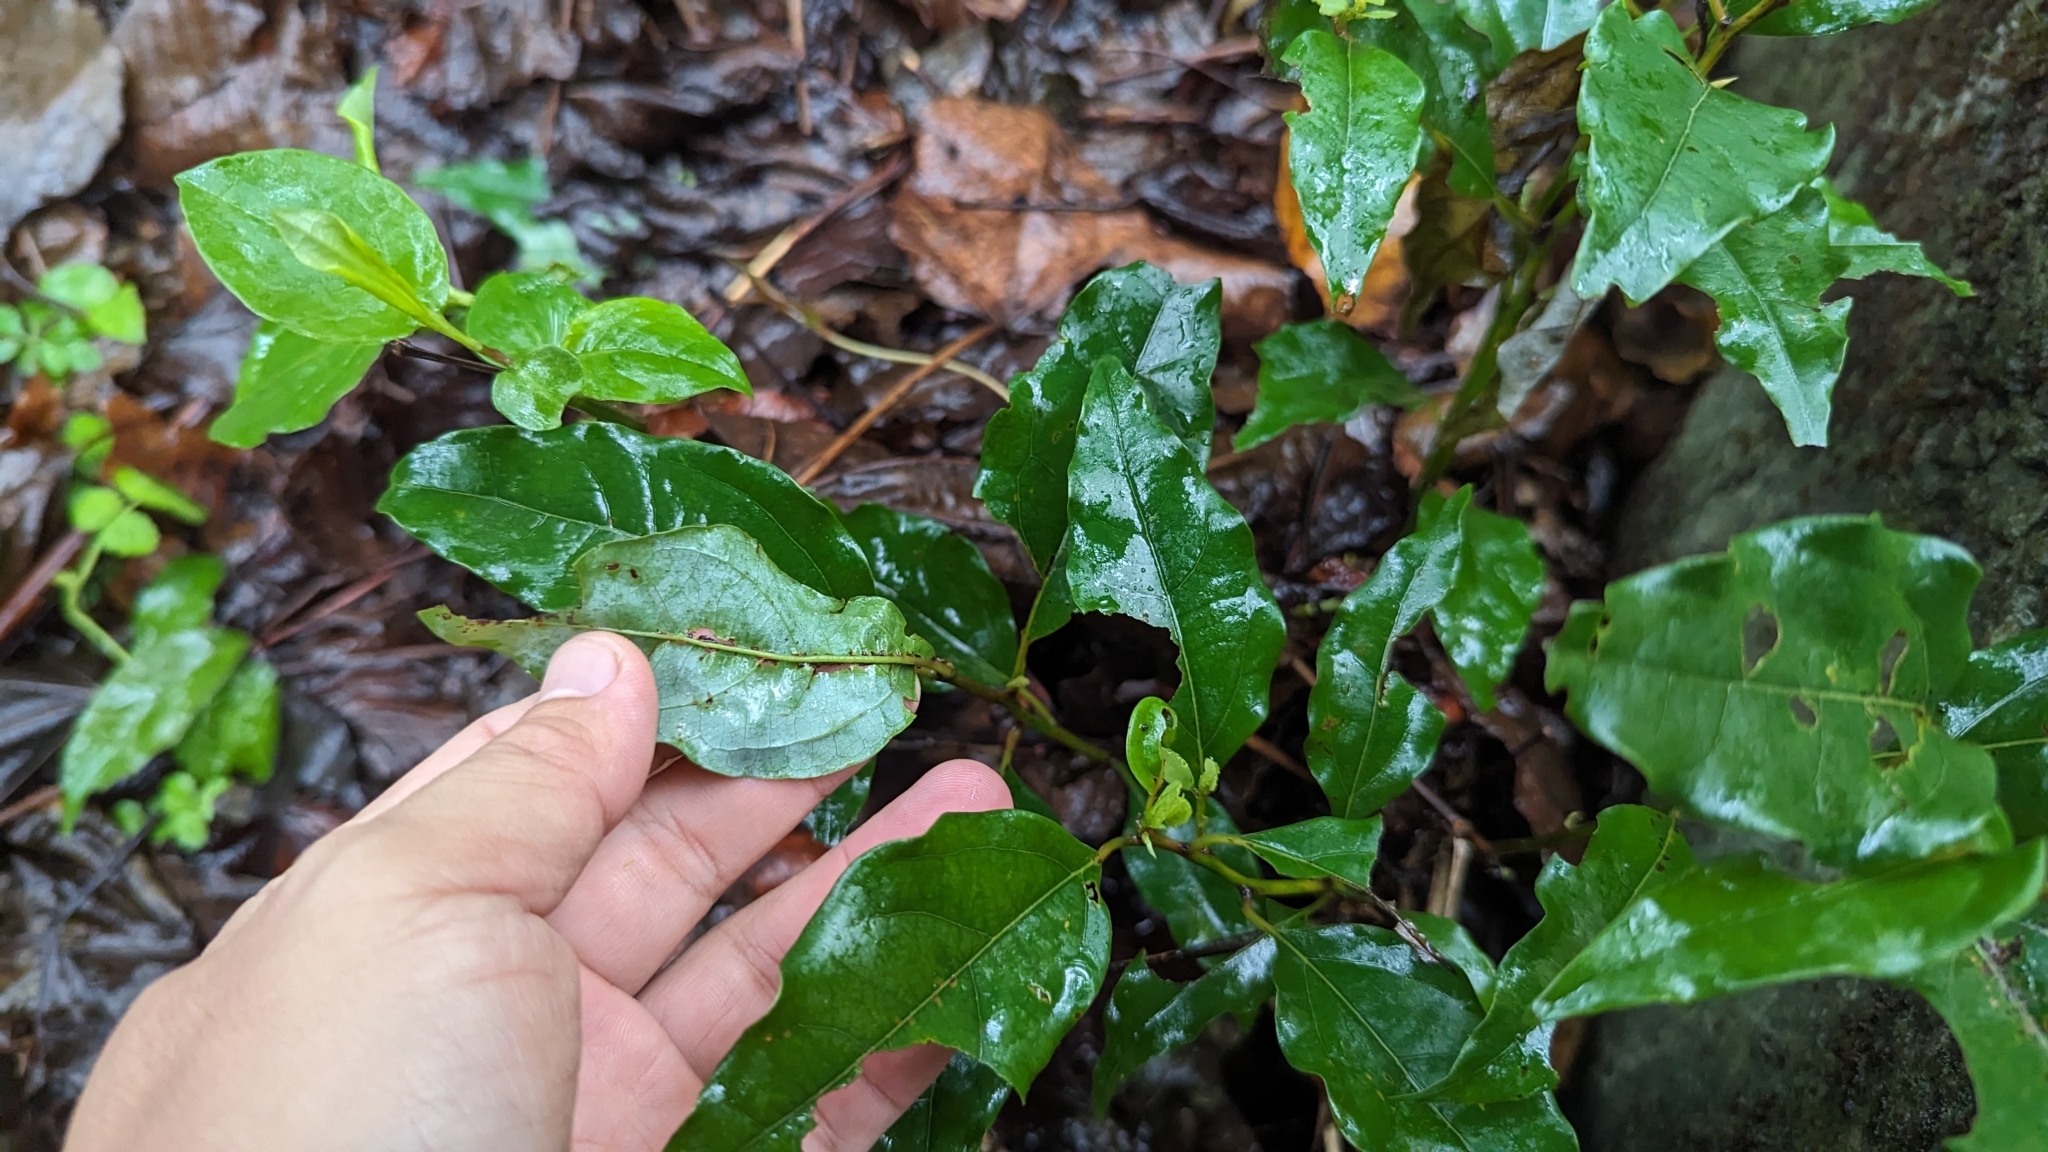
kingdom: Plantae
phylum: Tracheophyta
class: Magnoliopsida
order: Laurales
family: Lauraceae
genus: Cinnamomum
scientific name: Cinnamomum camphora
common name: Camphortree
